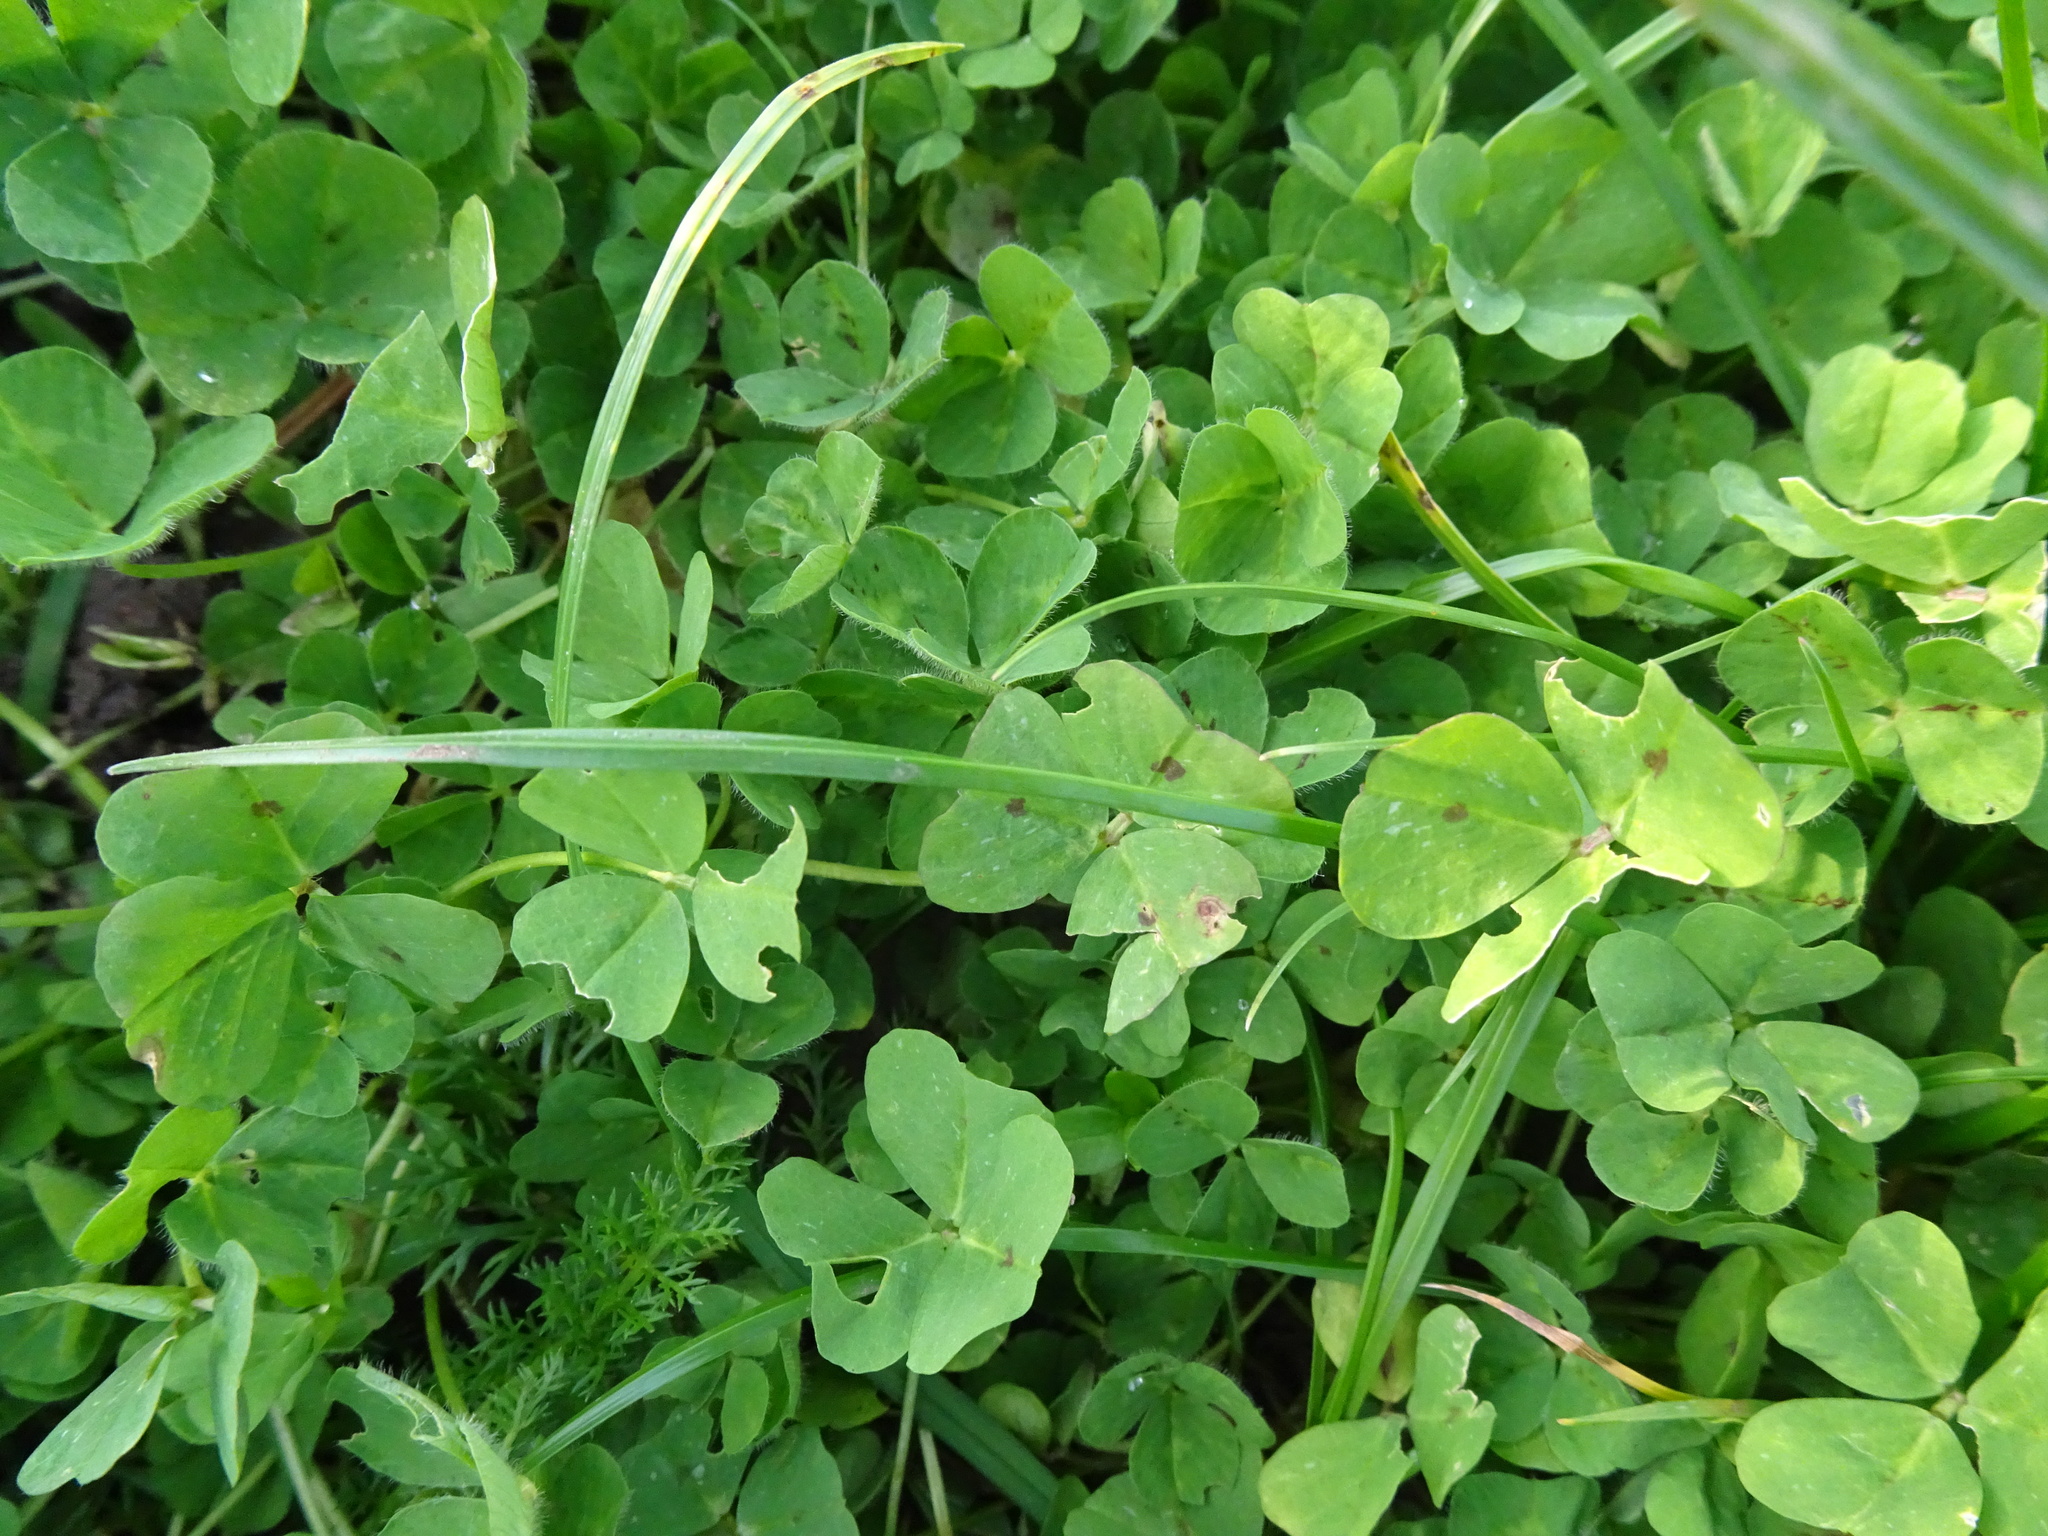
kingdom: Plantae
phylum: Tracheophyta
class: Magnoliopsida
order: Fabales
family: Fabaceae
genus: Medicago
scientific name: Medicago arabica
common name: Spotted medick
